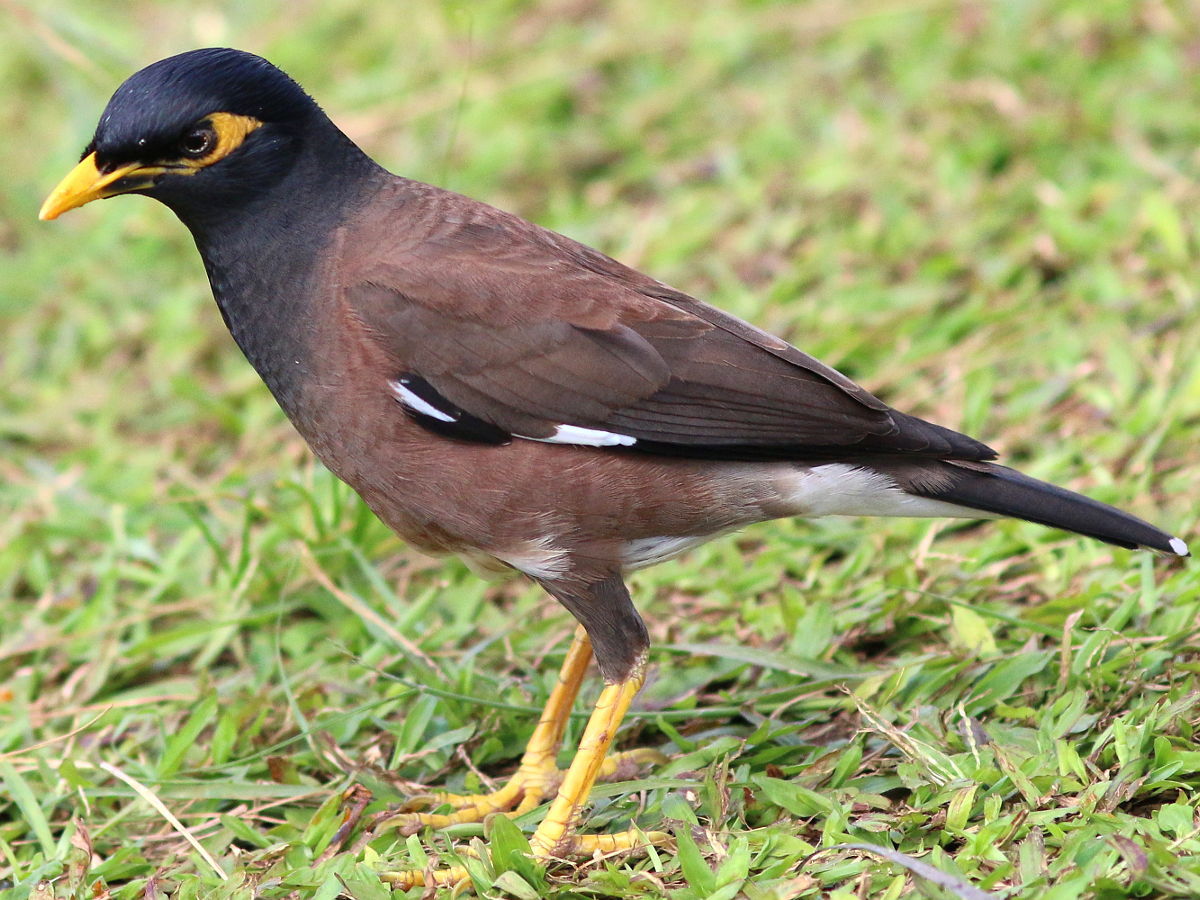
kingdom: Animalia
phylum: Chordata
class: Aves
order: Passeriformes
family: Sturnidae
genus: Acridotheres
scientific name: Acridotheres tristis
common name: Common myna
